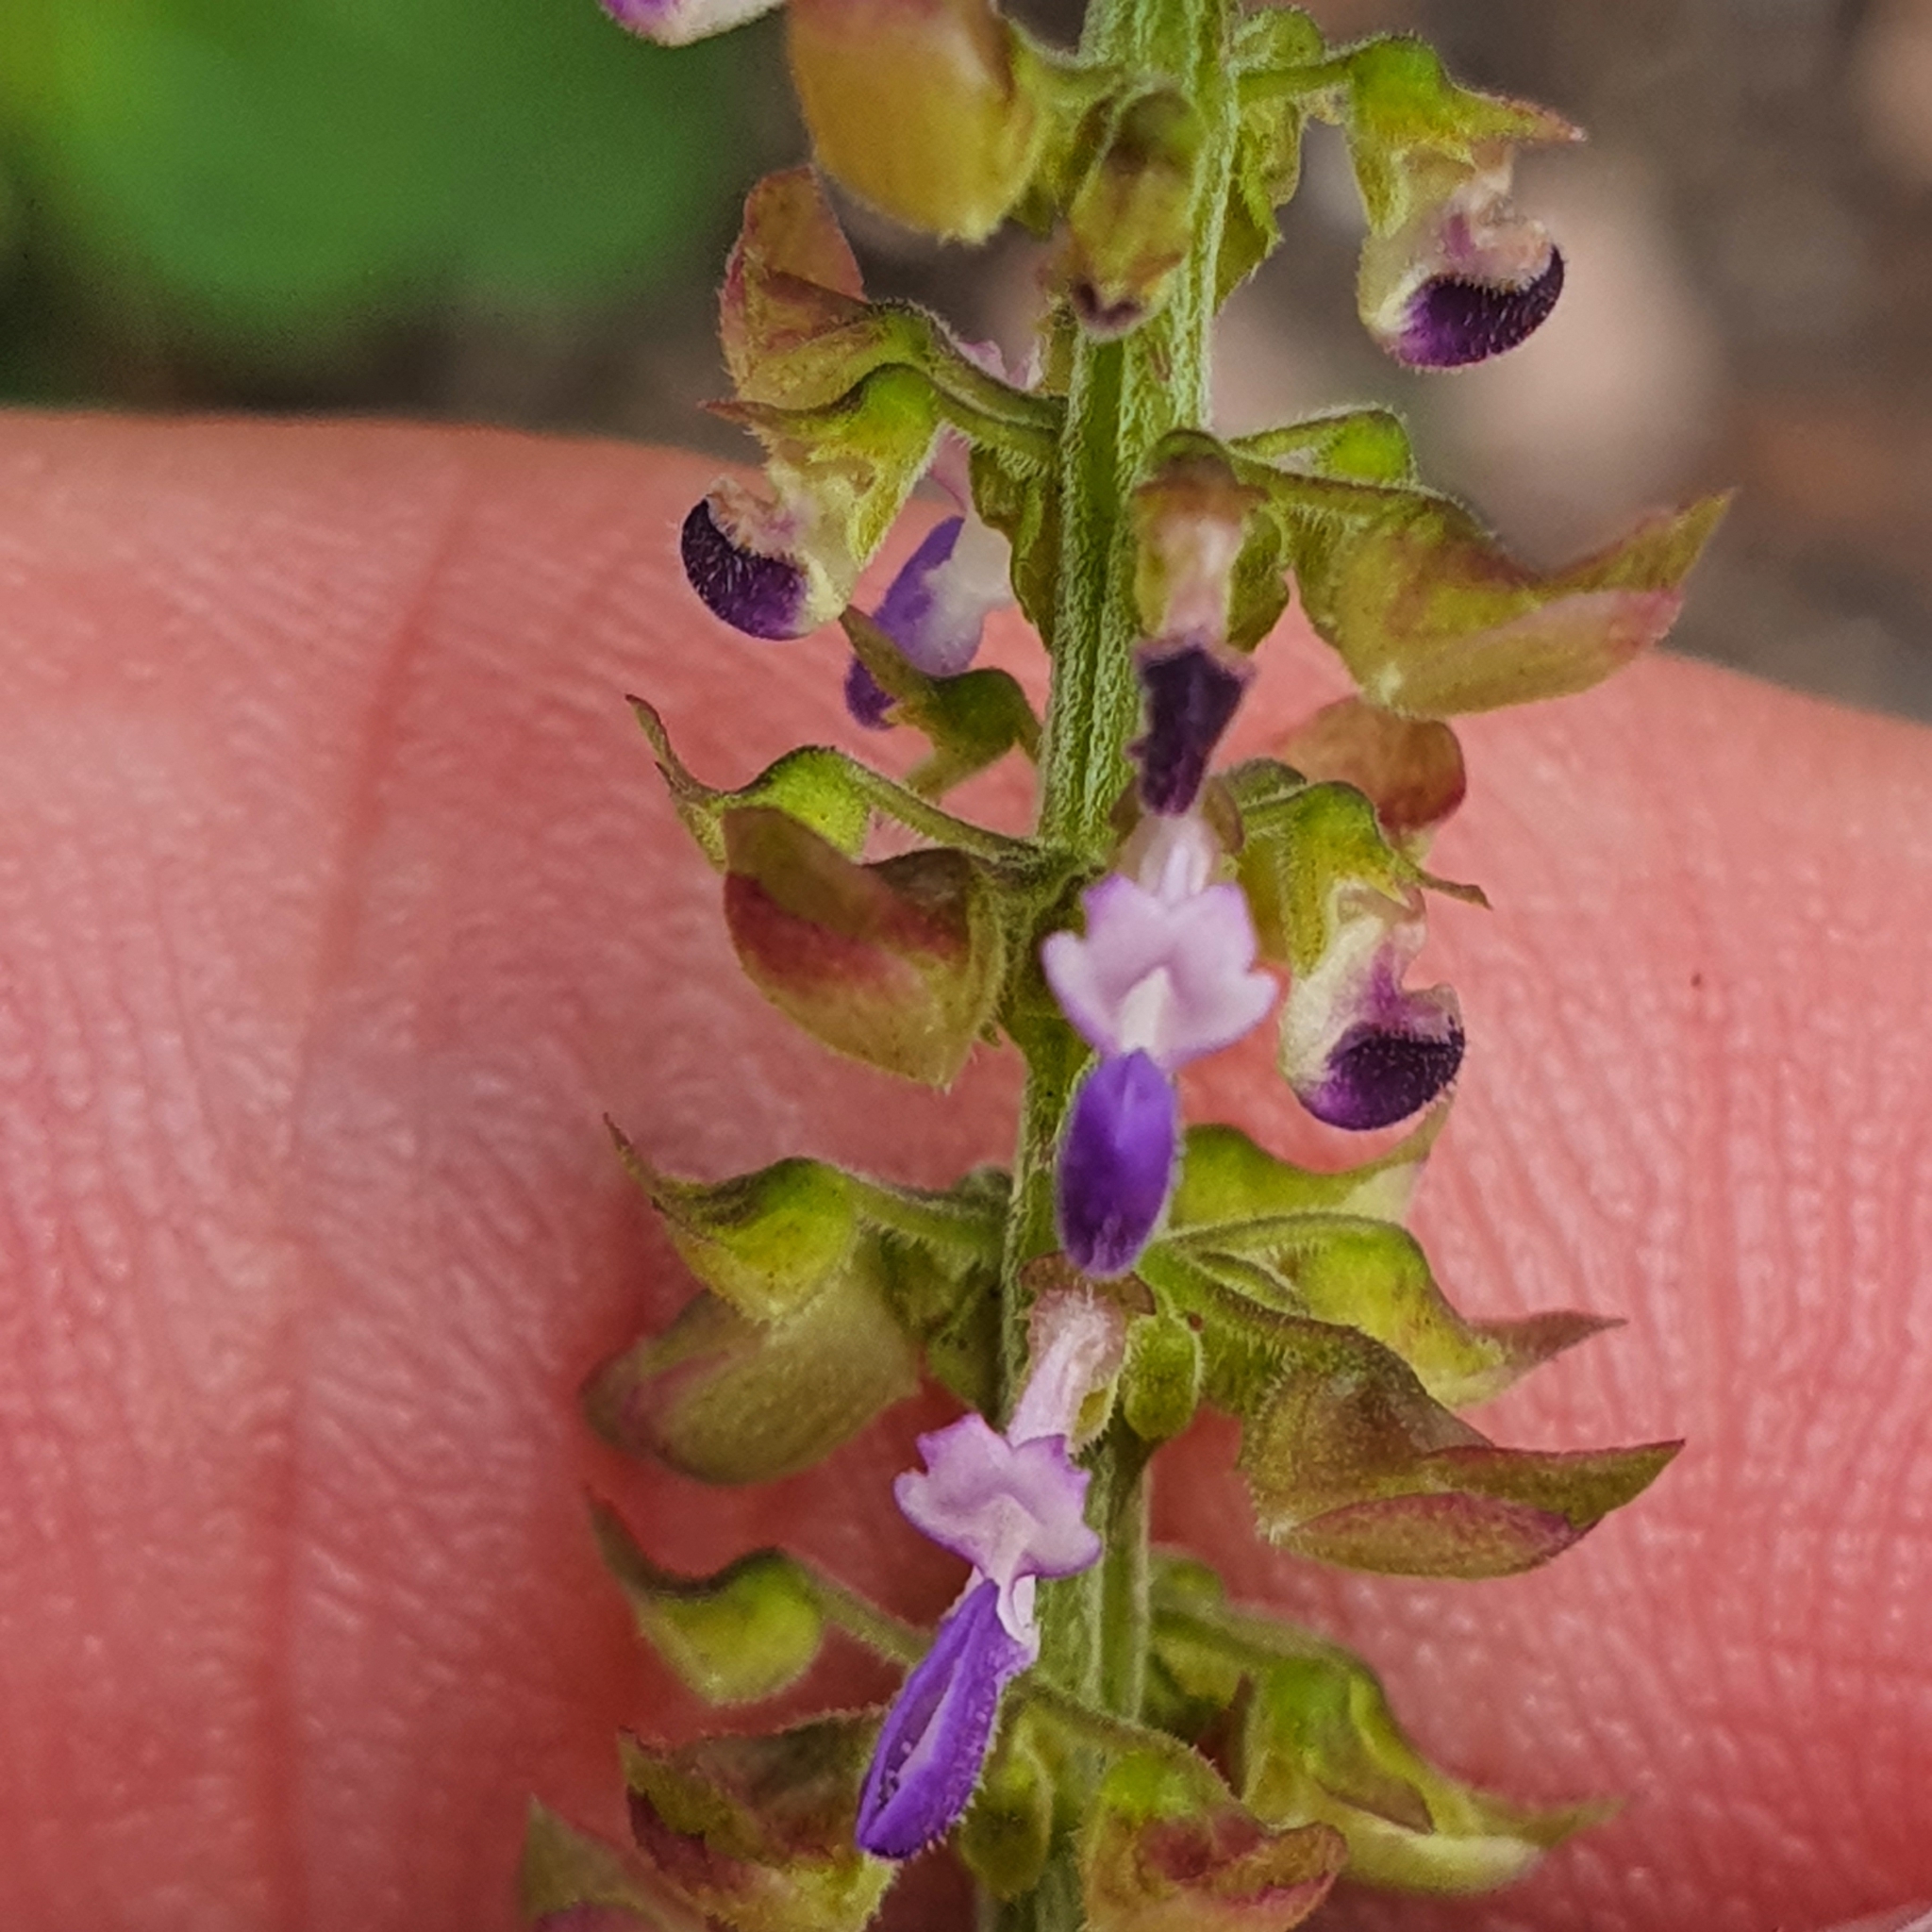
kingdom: Plantae
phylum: Tracheophyta
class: Magnoliopsida
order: Lamiales
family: Lamiaceae
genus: Coleus
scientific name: Coleus monostachyus
